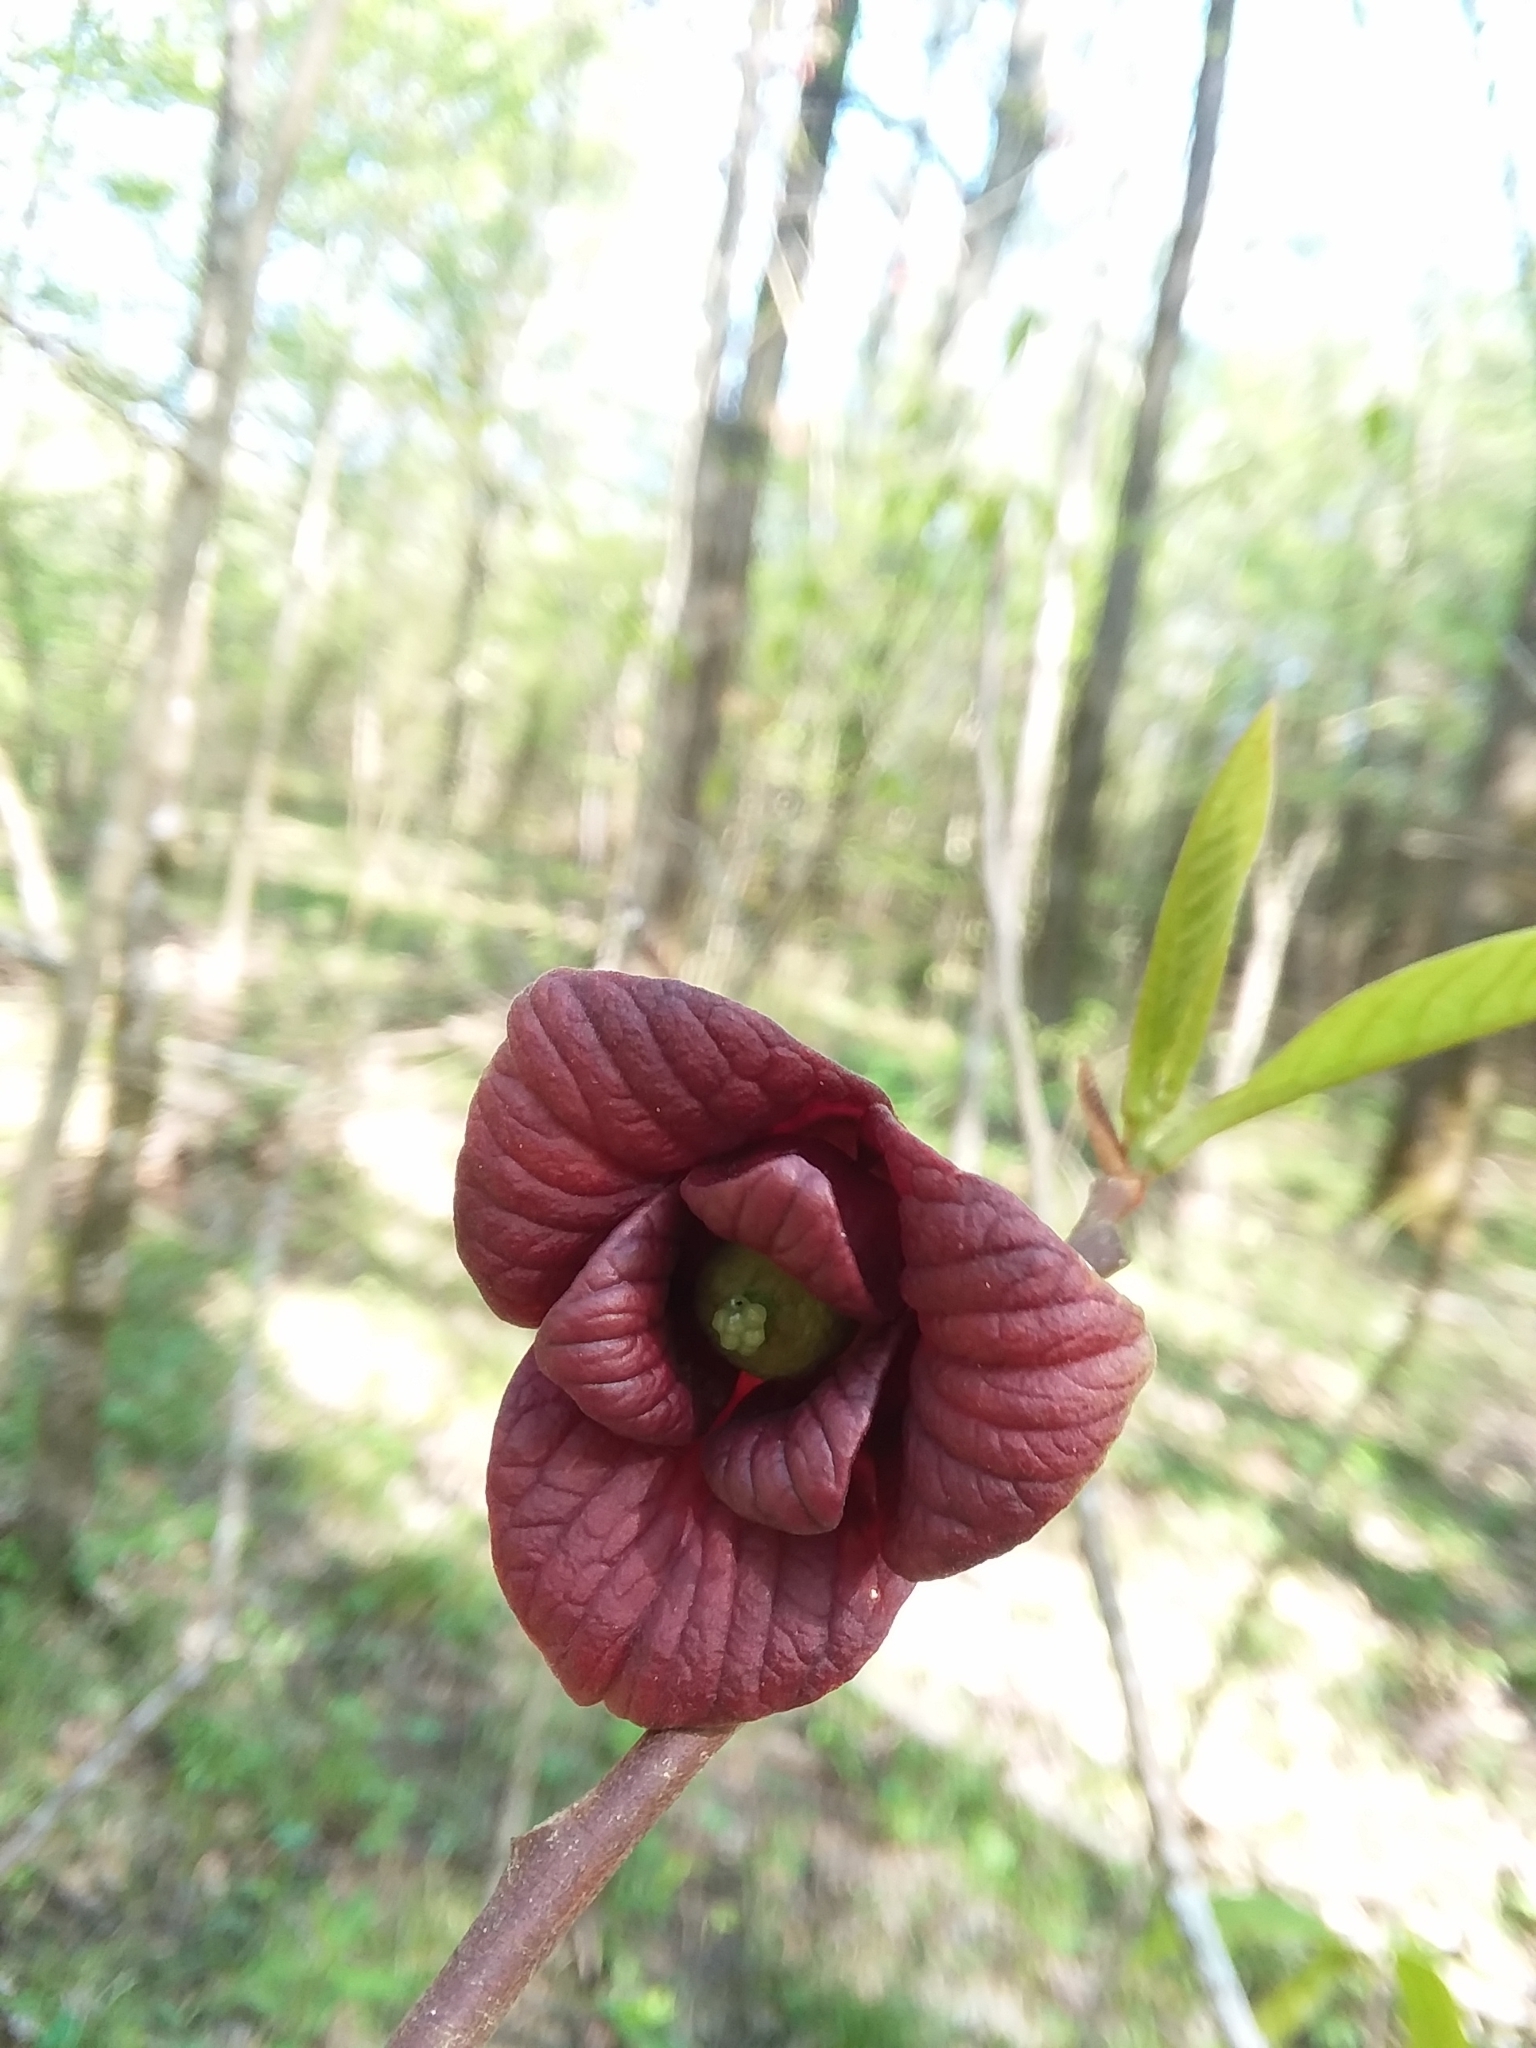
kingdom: Plantae
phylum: Tracheophyta
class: Magnoliopsida
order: Magnoliales
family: Annonaceae
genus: Asimina
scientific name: Asimina triloba
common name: Dog-banana
